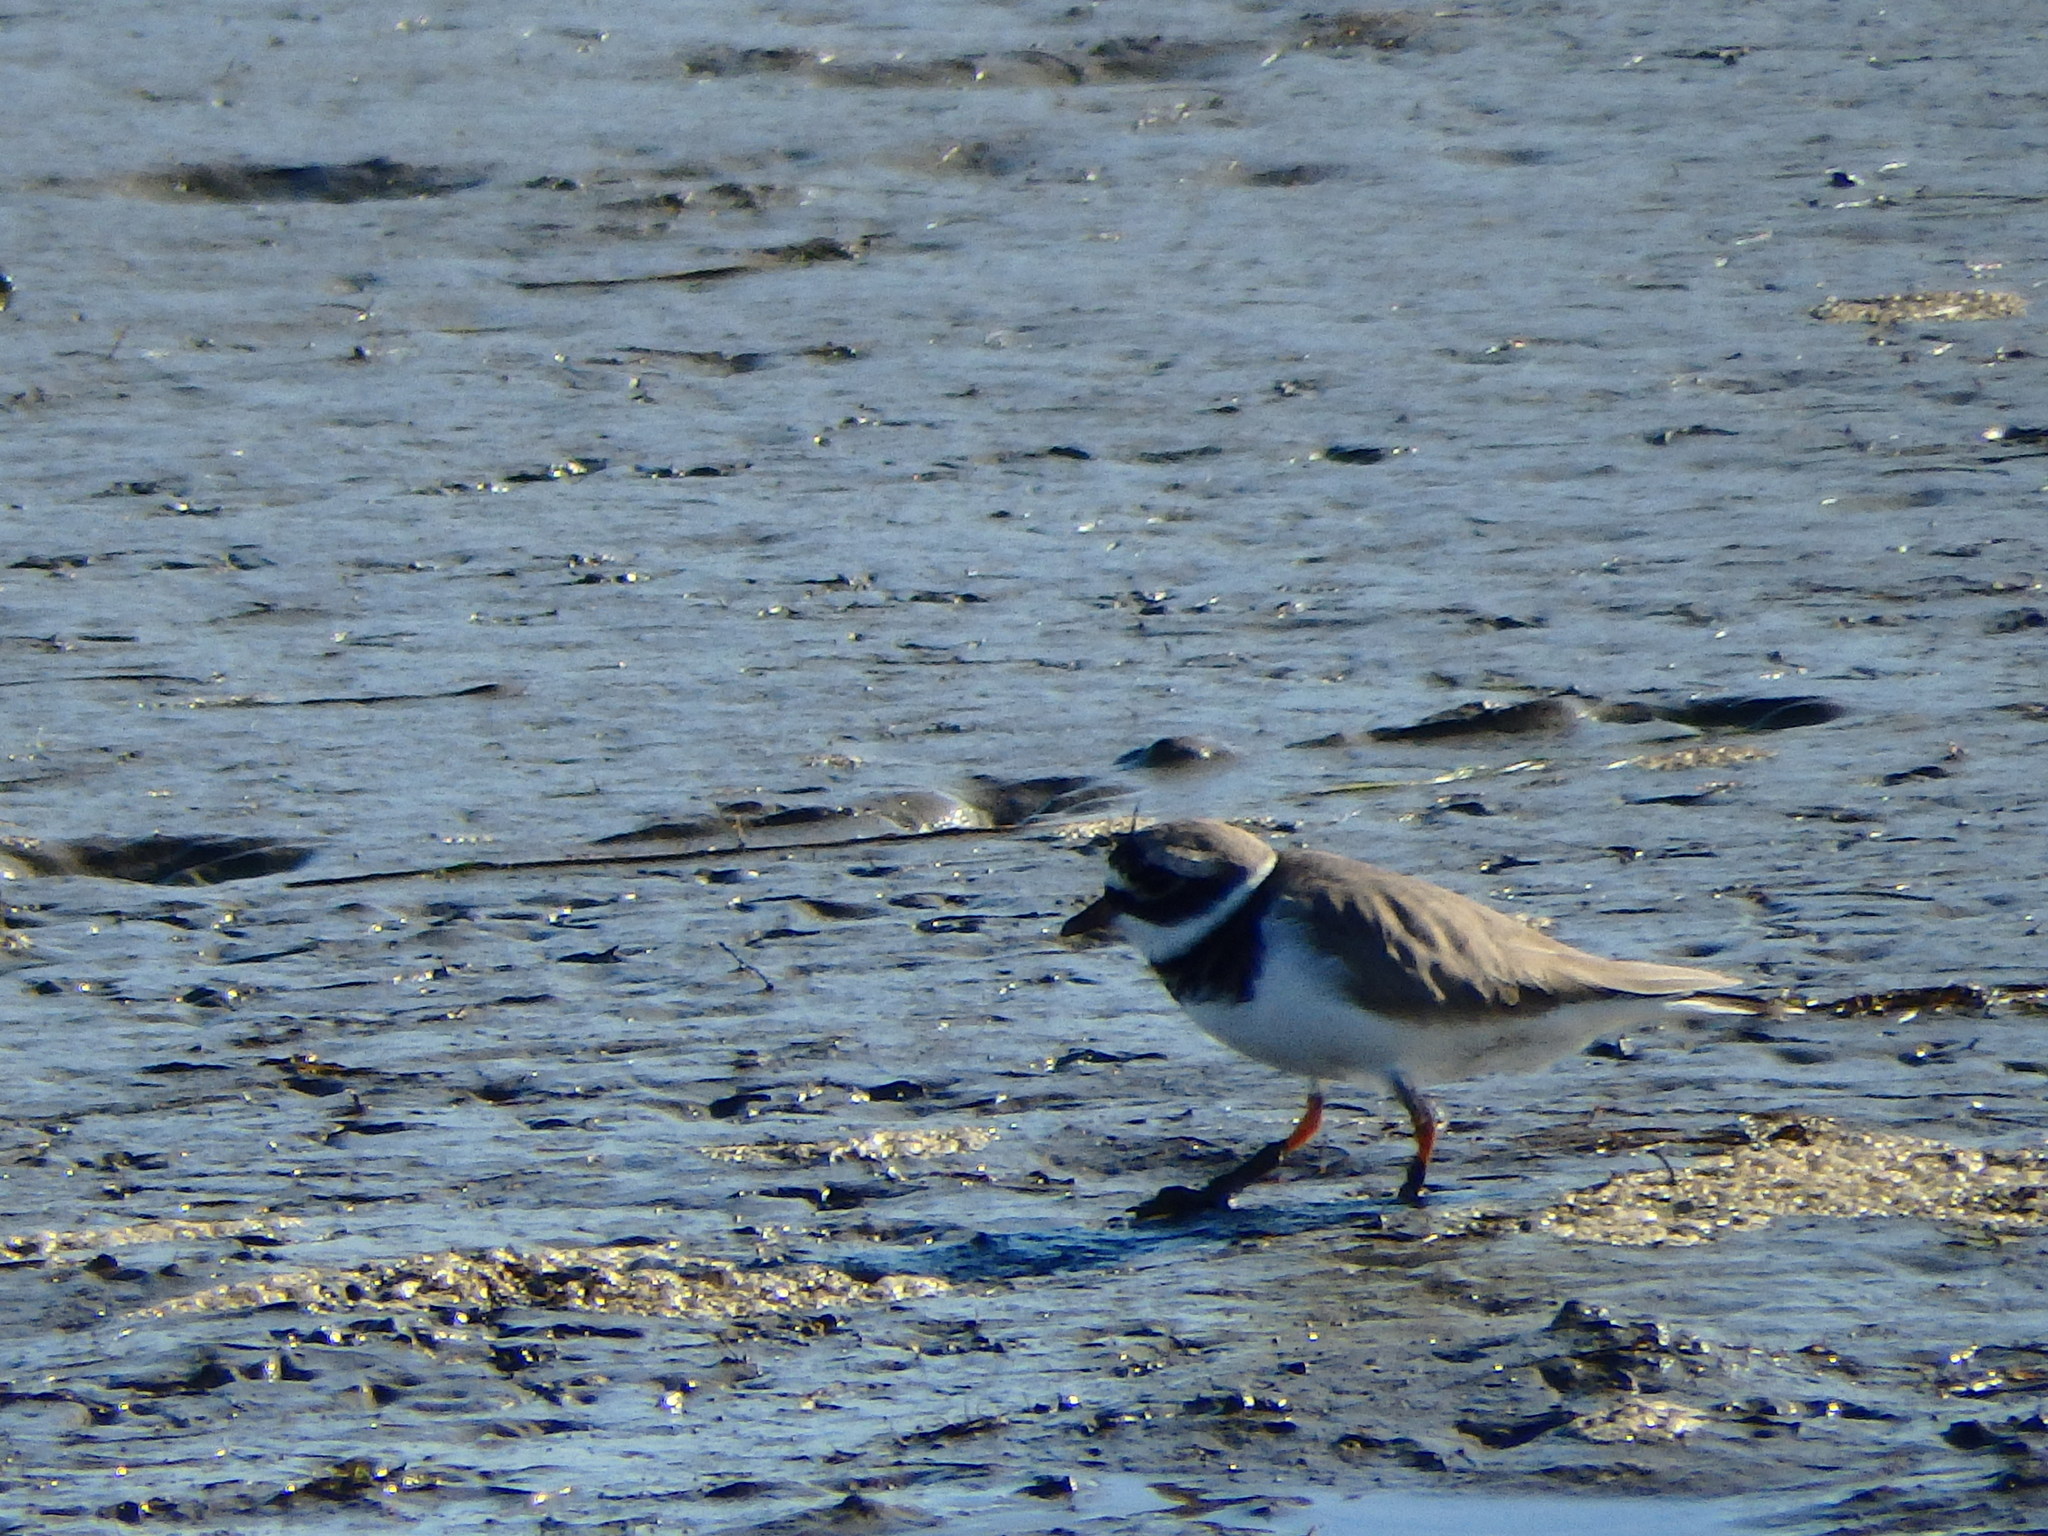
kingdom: Animalia
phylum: Chordata
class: Aves
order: Charadriiformes
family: Charadriidae
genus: Charadrius
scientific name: Charadrius hiaticula
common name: Common ringed plover
